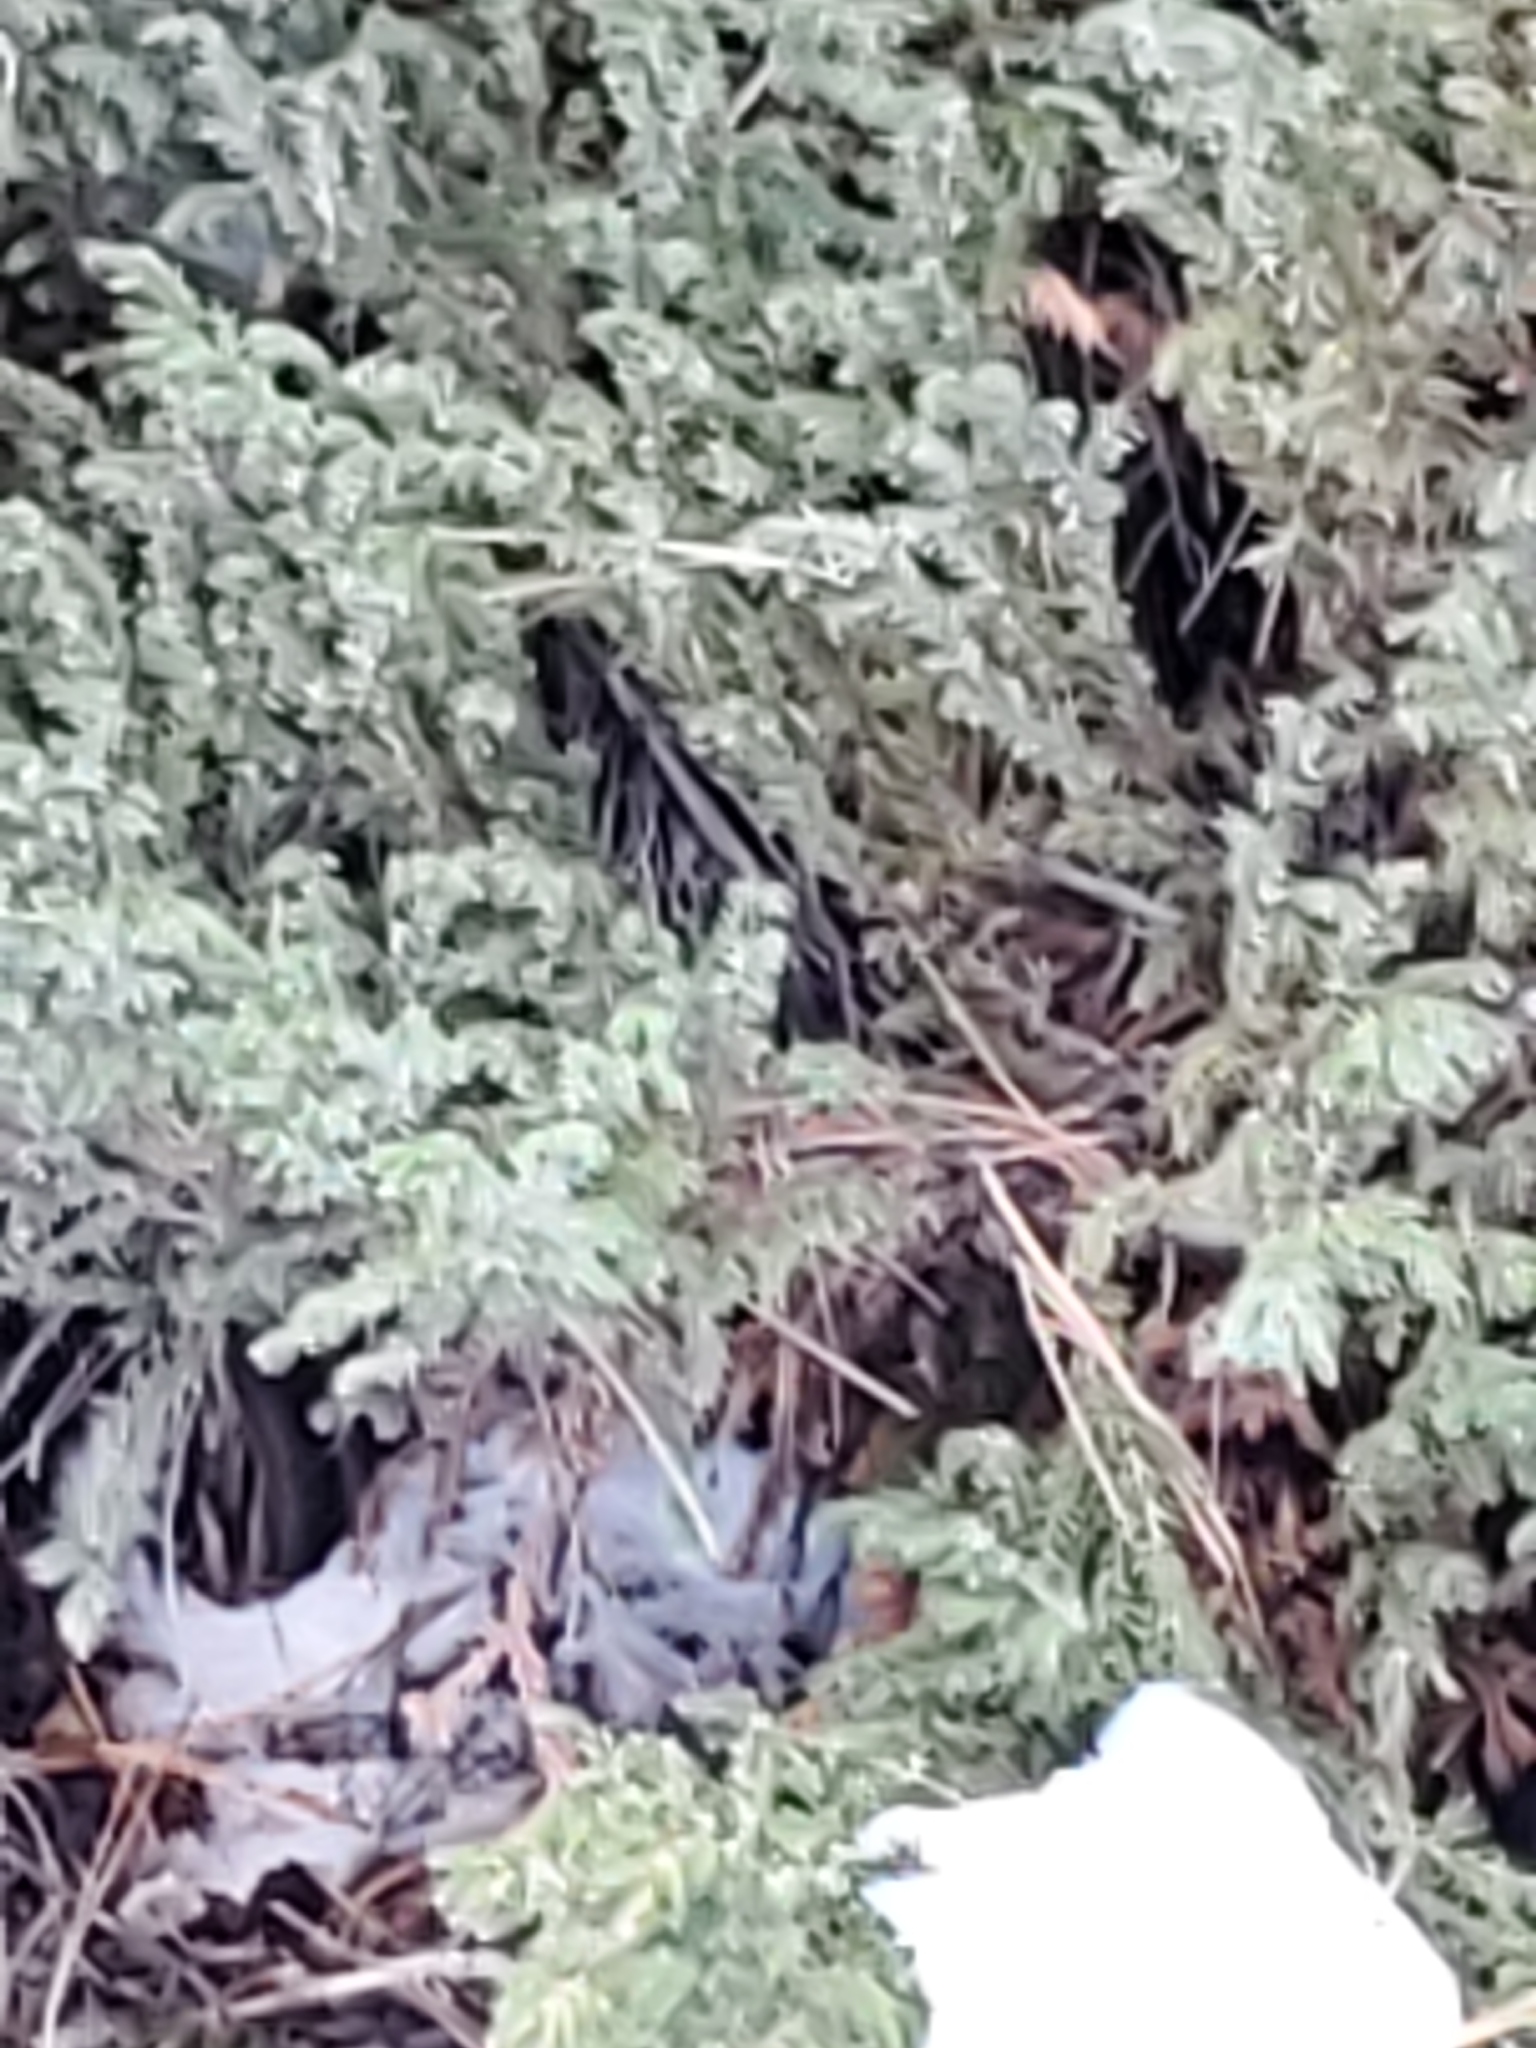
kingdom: Plantae
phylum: Tracheophyta
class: Pinopsida
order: Pinales
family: Cupressaceae
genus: Juniperus
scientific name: Juniperus scopulorum
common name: Rocky mountain juniper
